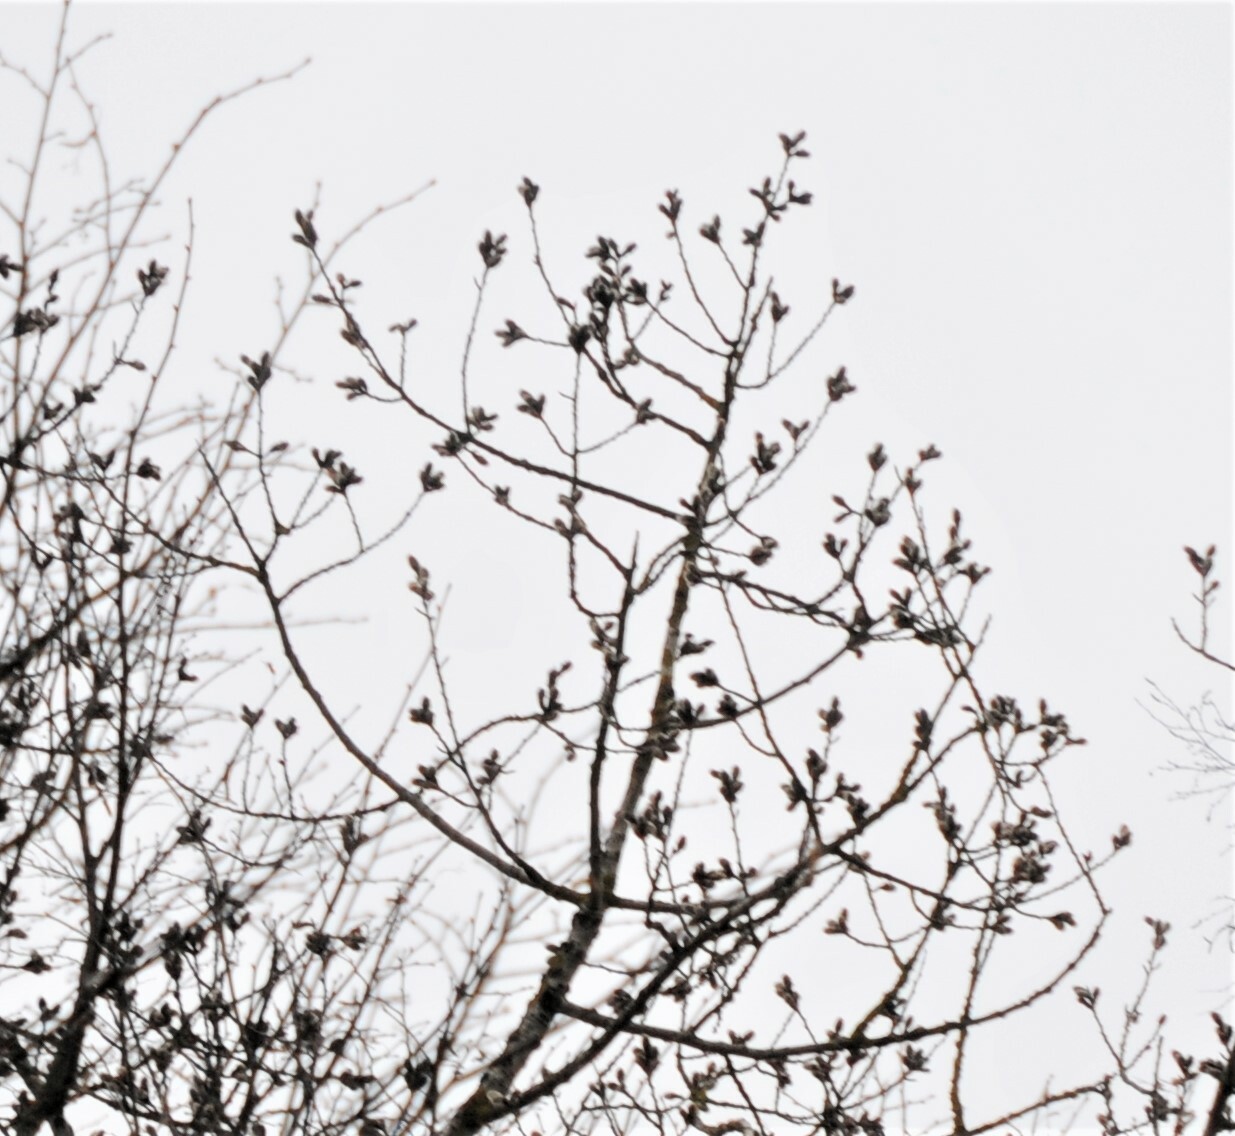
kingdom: Plantae
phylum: Tracheophyta
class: Magnoliopsida
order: Malpighiales
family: Salicaceae
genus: Populus
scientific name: Populus tremula
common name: European aspen
